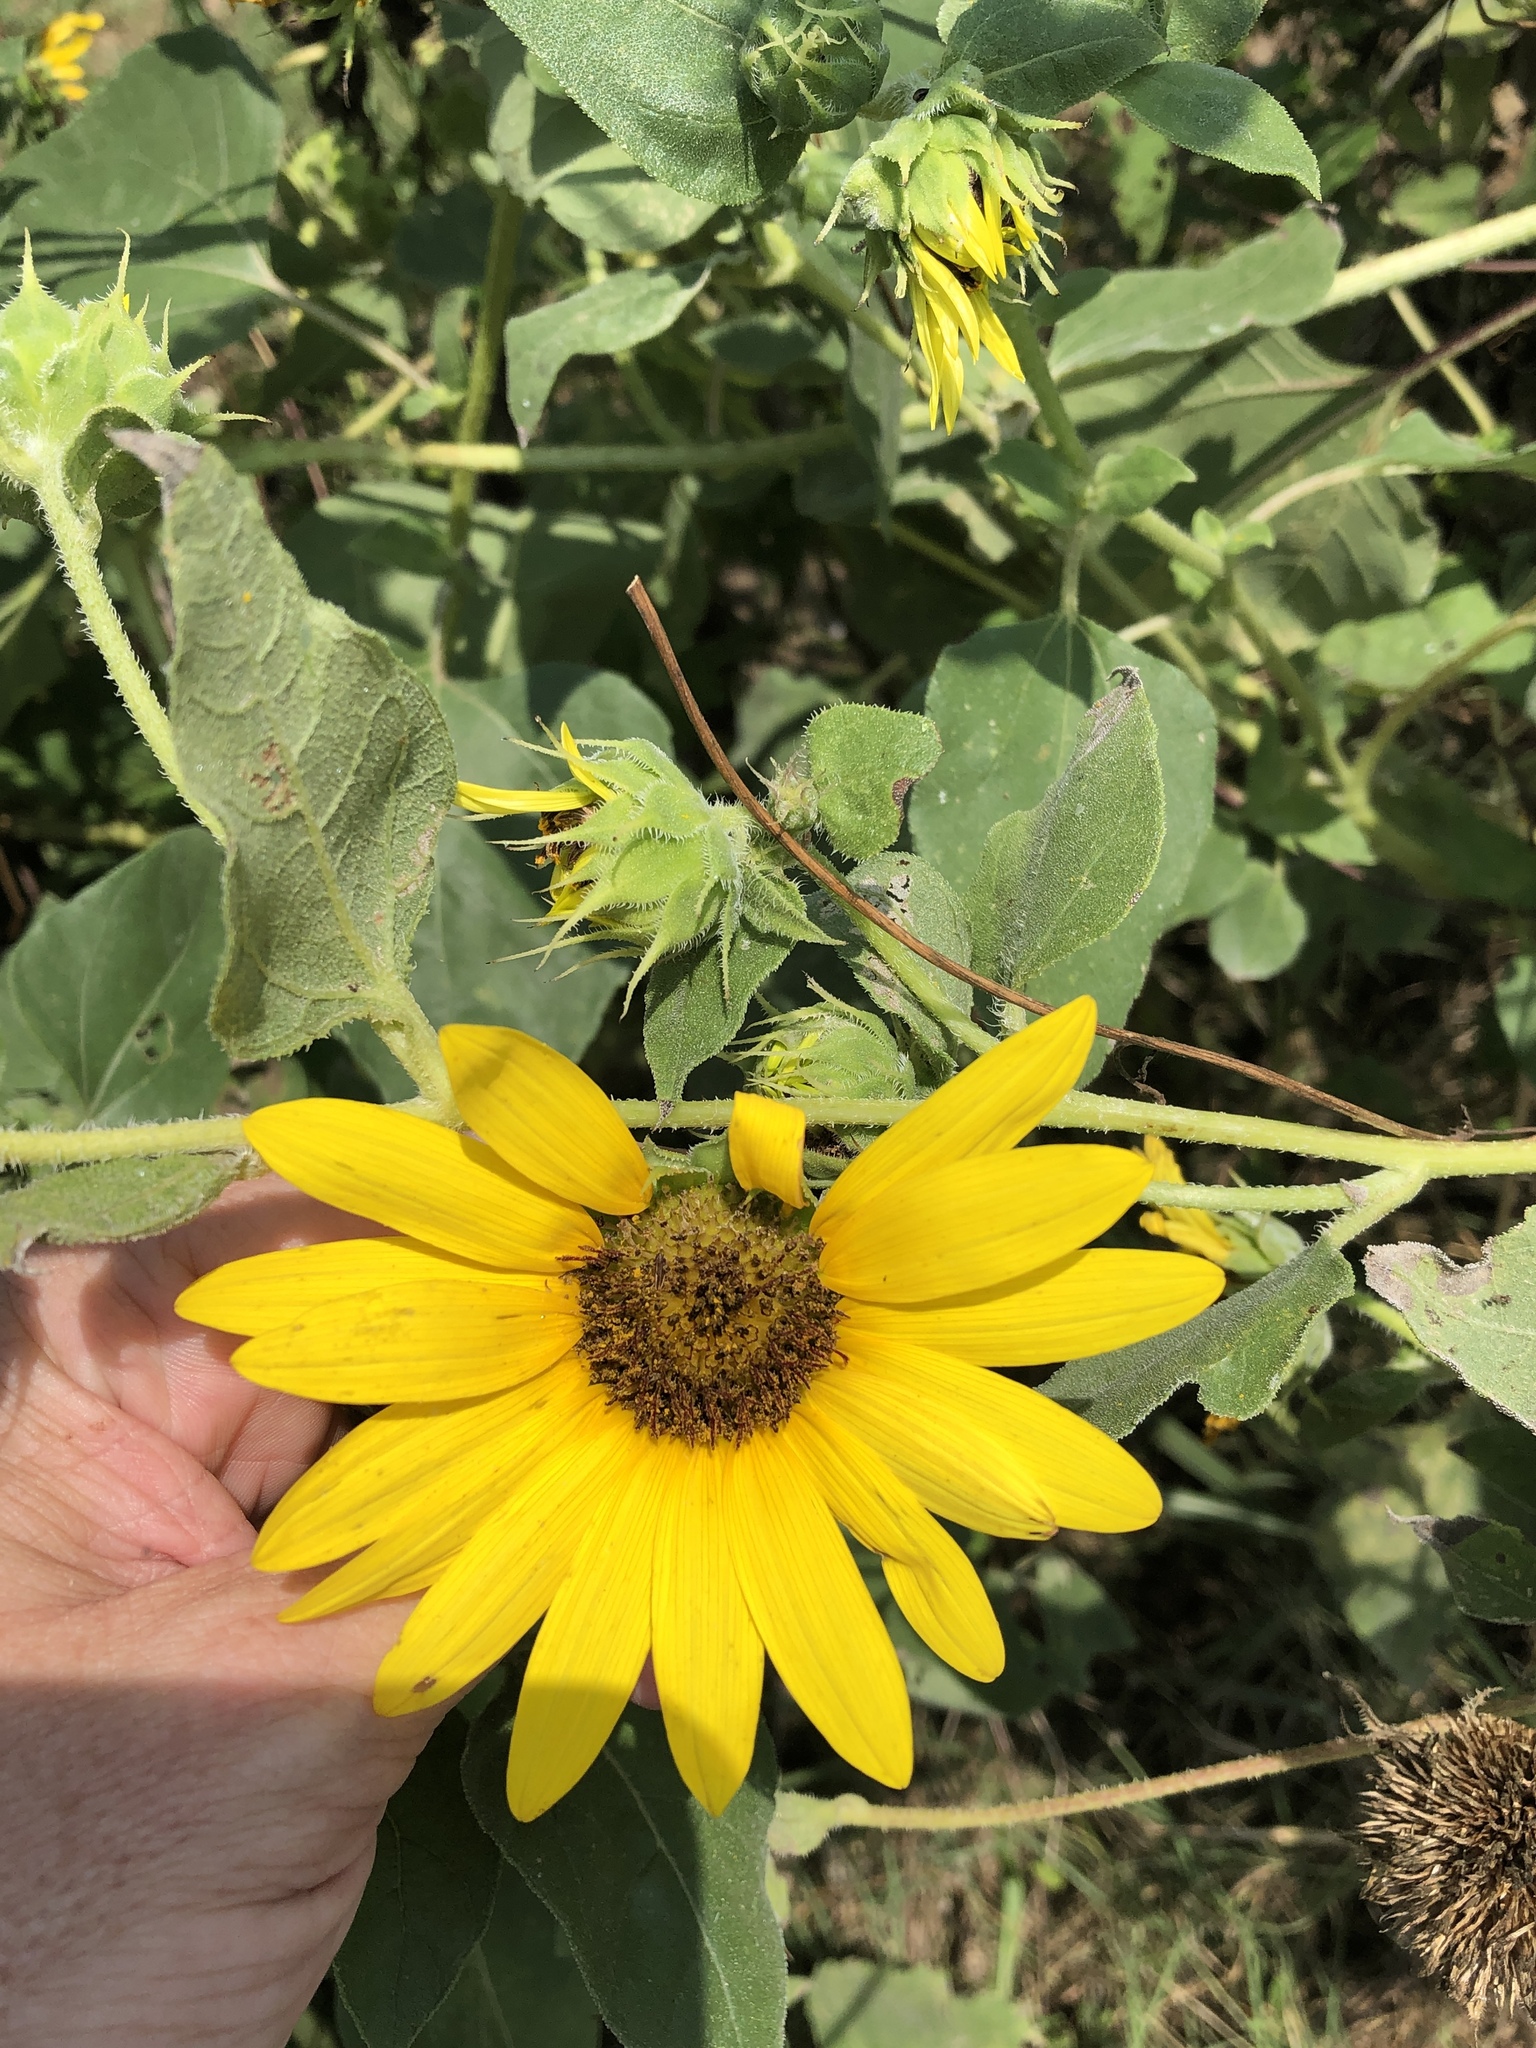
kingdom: Plantae
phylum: Tracheophyta
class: Magnoliopsida
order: Asterales
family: Asteraceae
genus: Helianthus
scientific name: Helianthus annuus
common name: Sunflower
